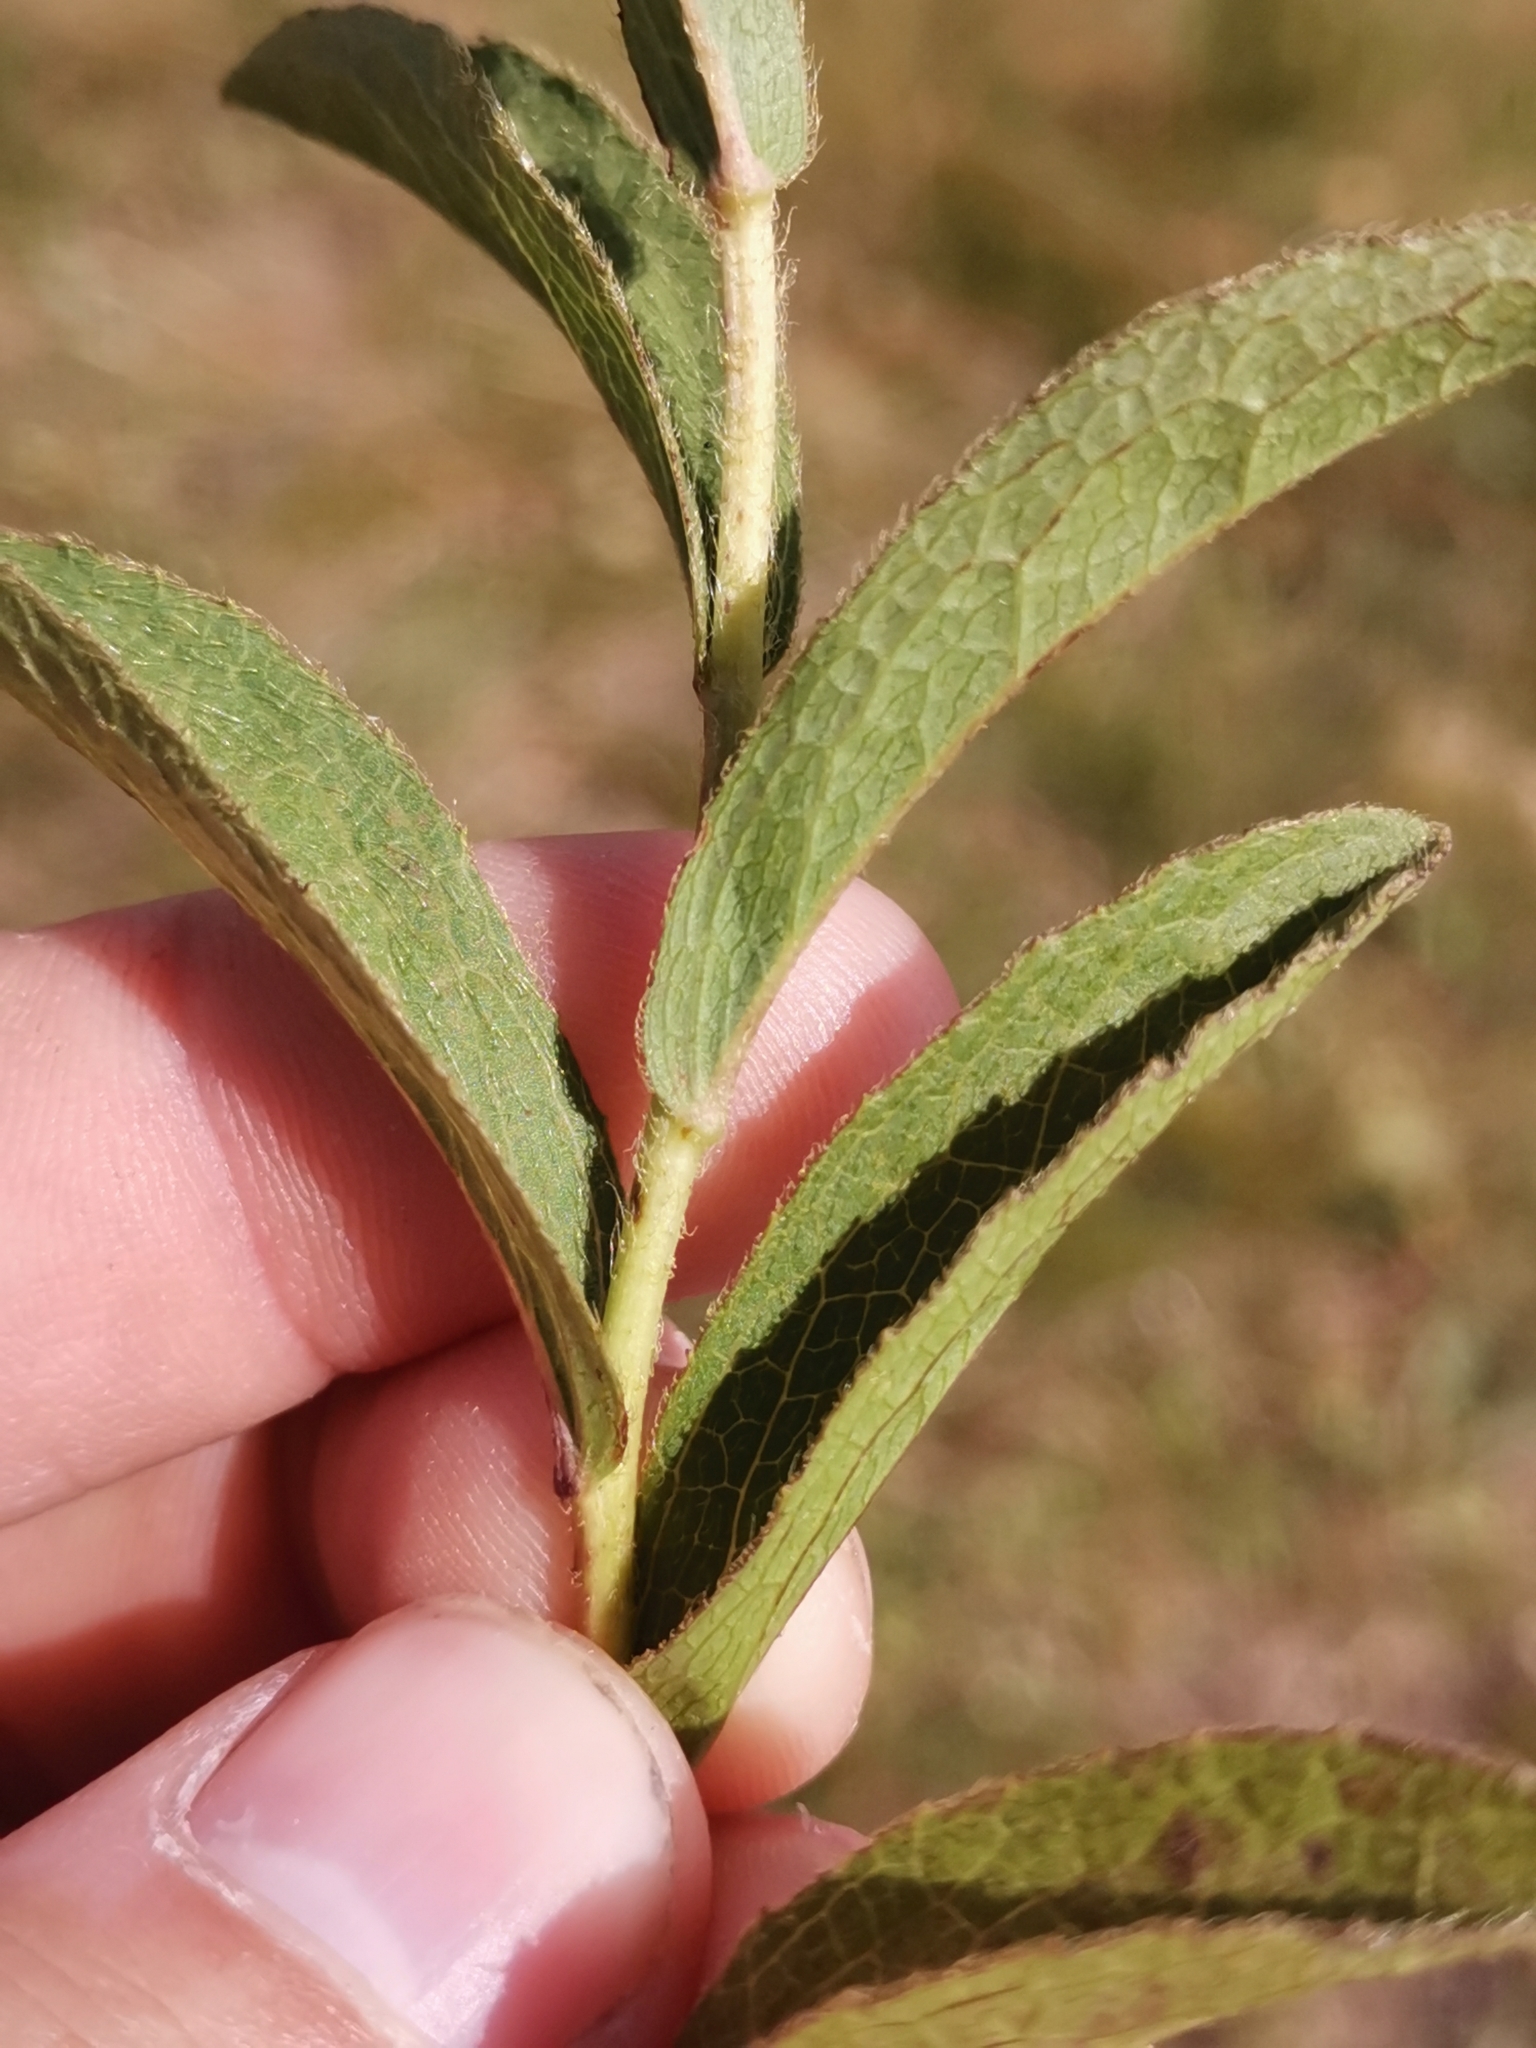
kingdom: Plantae
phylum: Tracheophyta
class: Magnoliopsida
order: Asterales
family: Asteraceae
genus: Pentanema
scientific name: Pentanema hirtum
